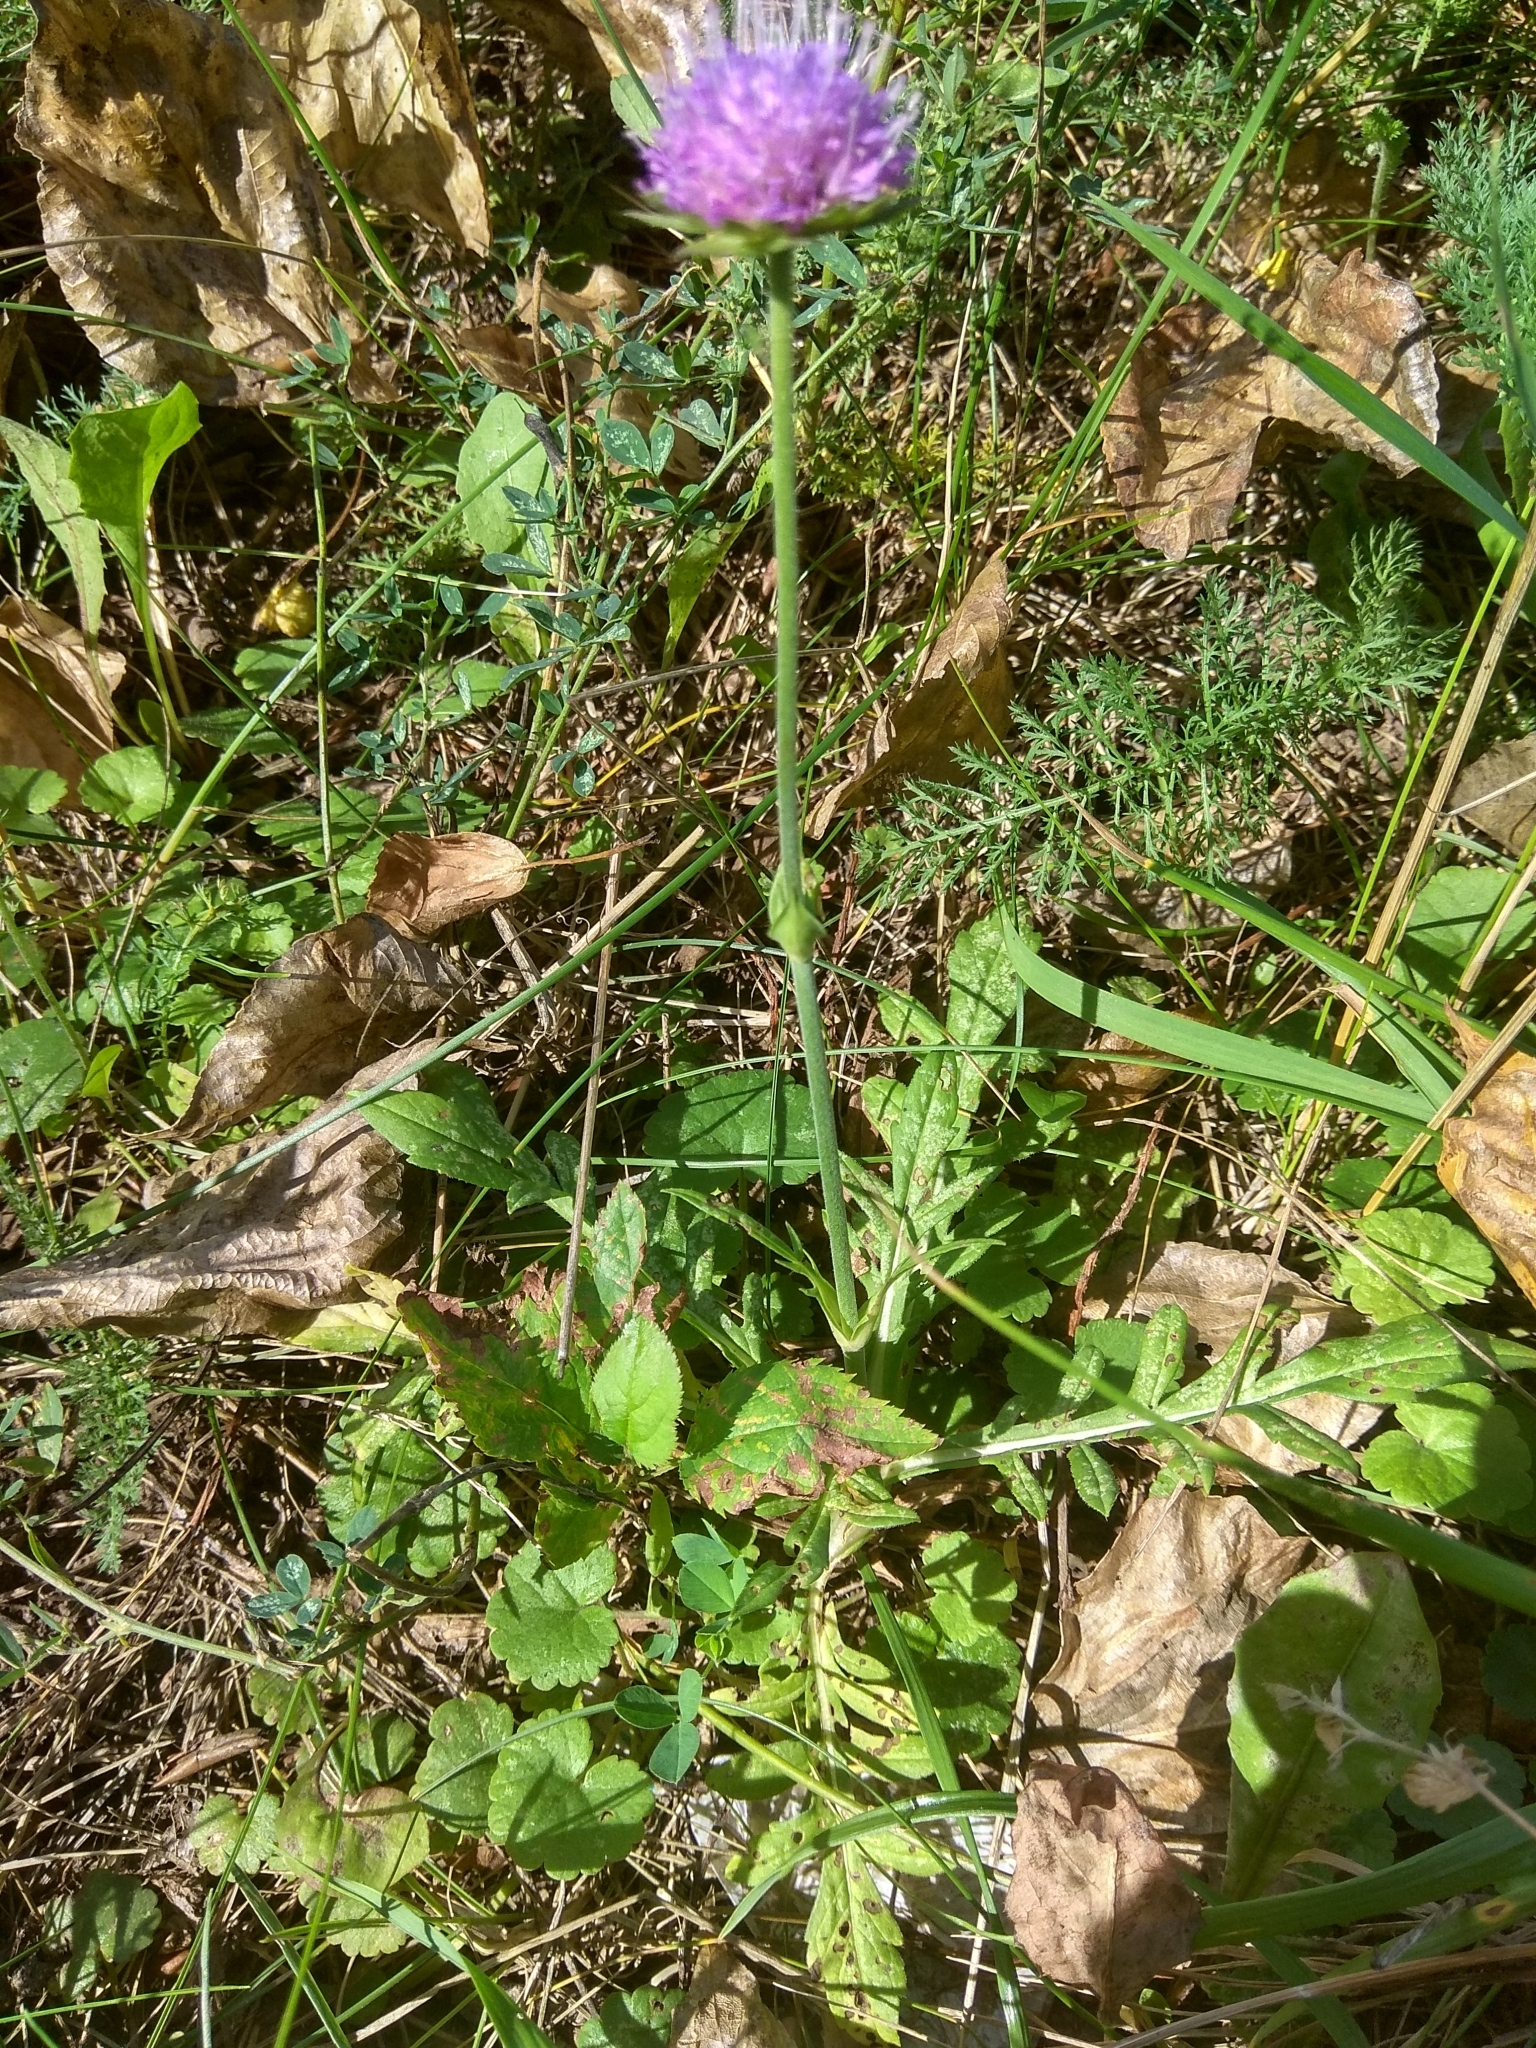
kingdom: Plantae
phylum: Tracheophyta
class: Magnoliopsida
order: Dipsacales
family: Caprifoliaceae
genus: Knautia
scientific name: Knautia arvensis
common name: Field scabiosa
